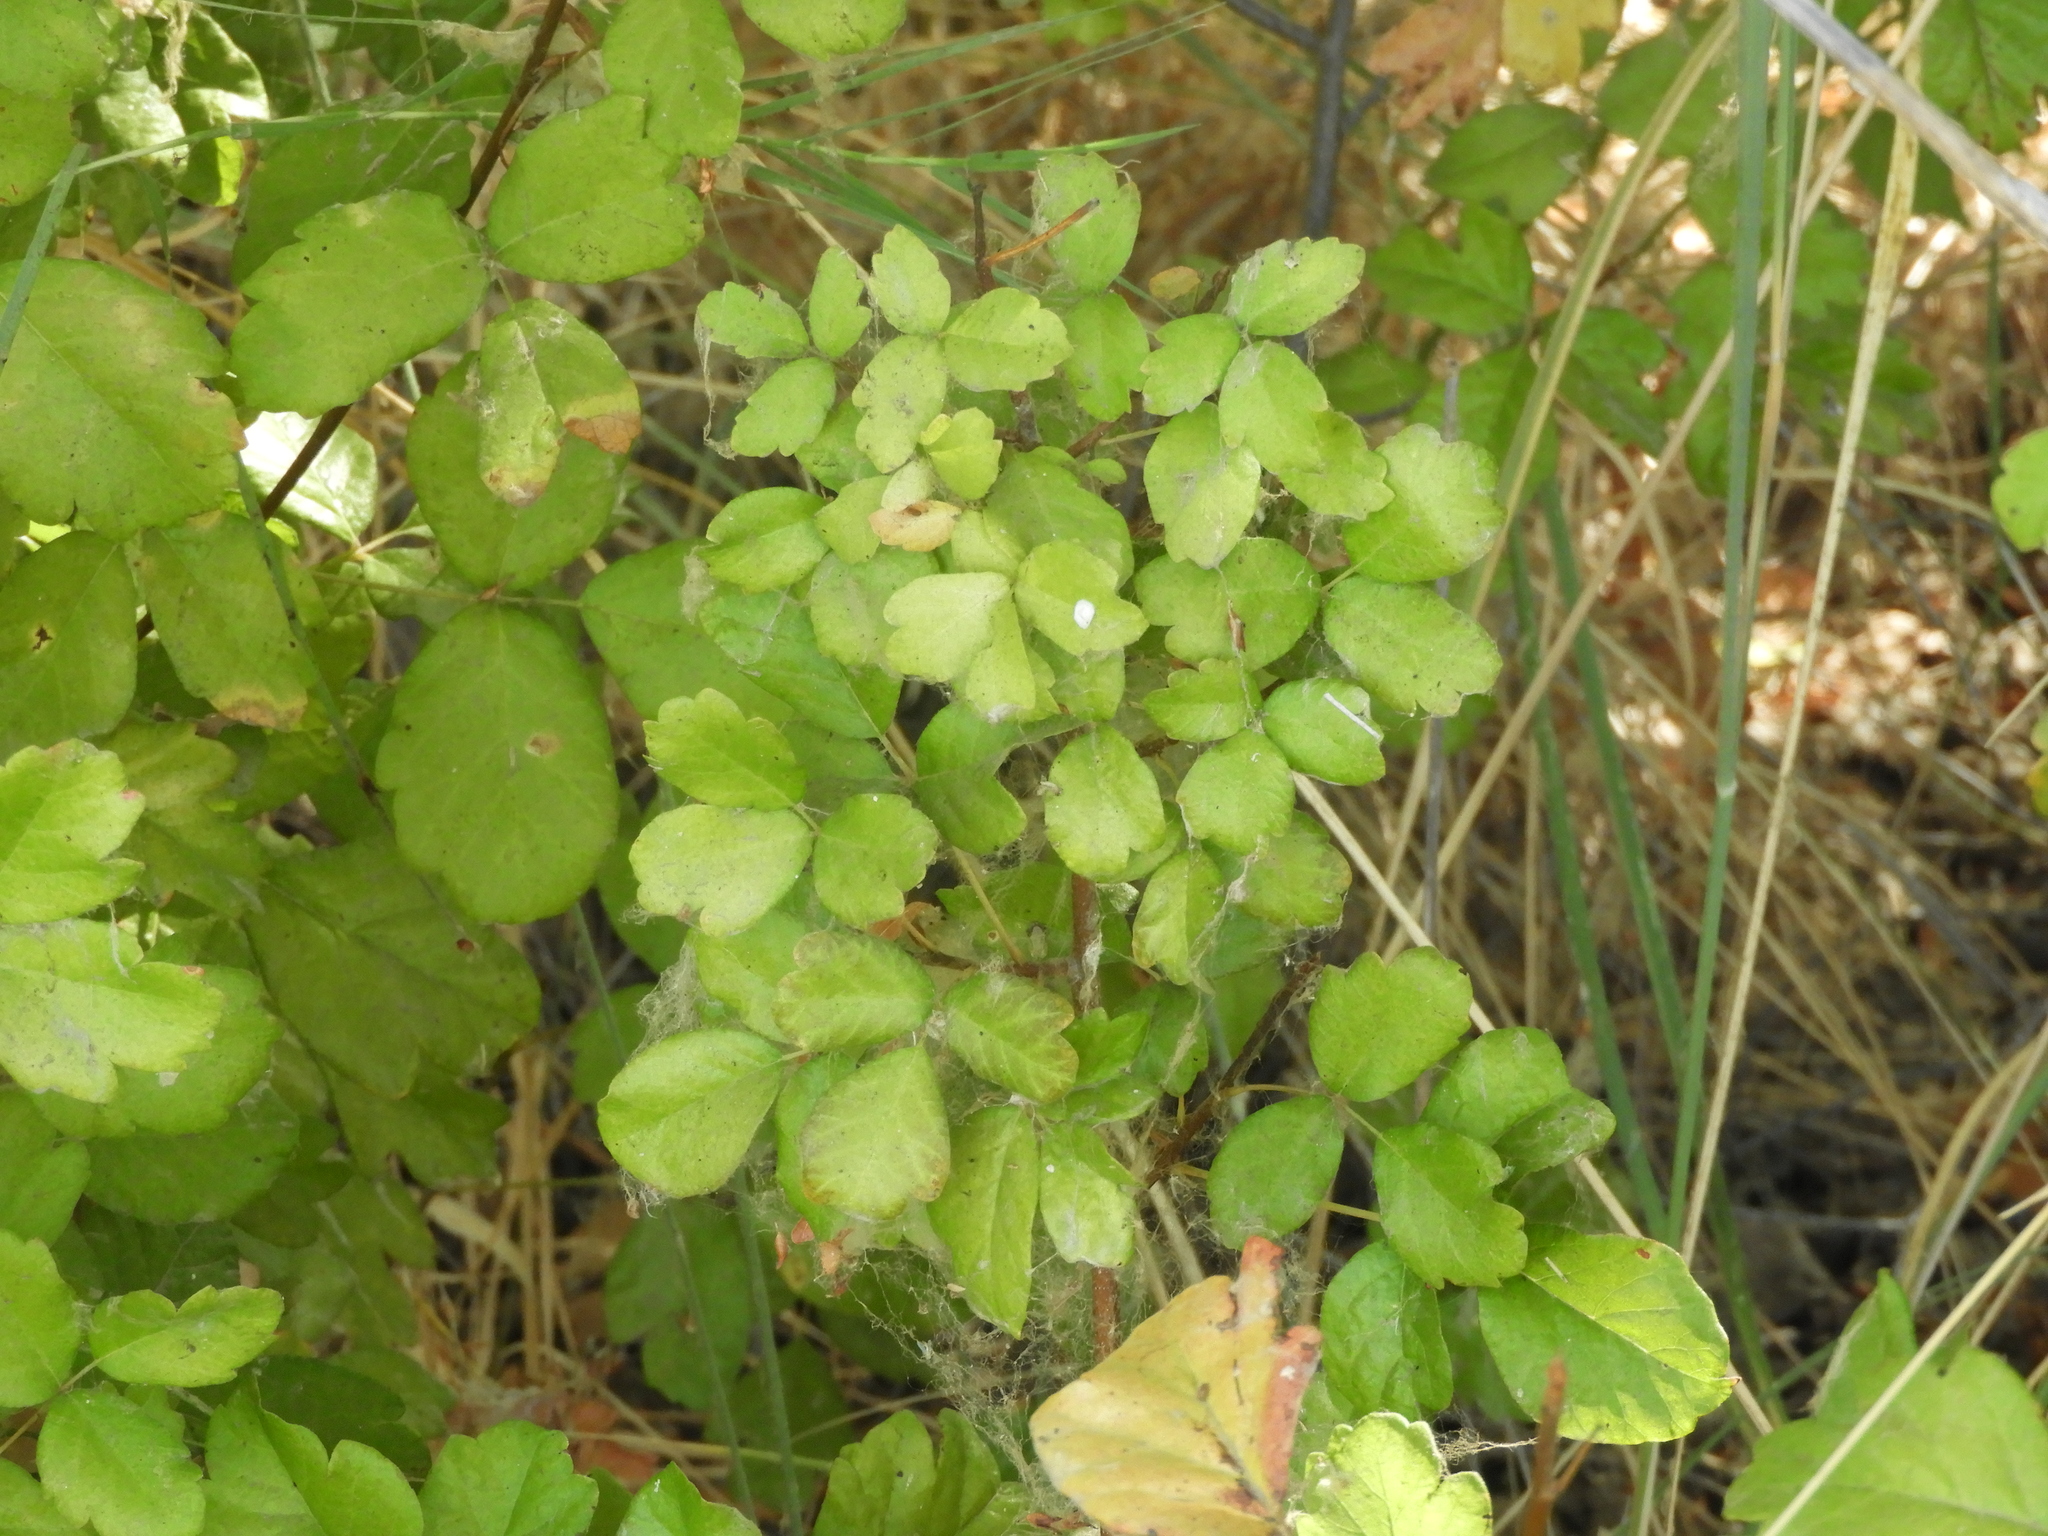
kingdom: Plantae
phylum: Tracheophyta
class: Magnoliopsida
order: Sapindales
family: Anacardiaceae
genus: Toxicodendron
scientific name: Toxicodendron diversilobum
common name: Pacific poison-oak
